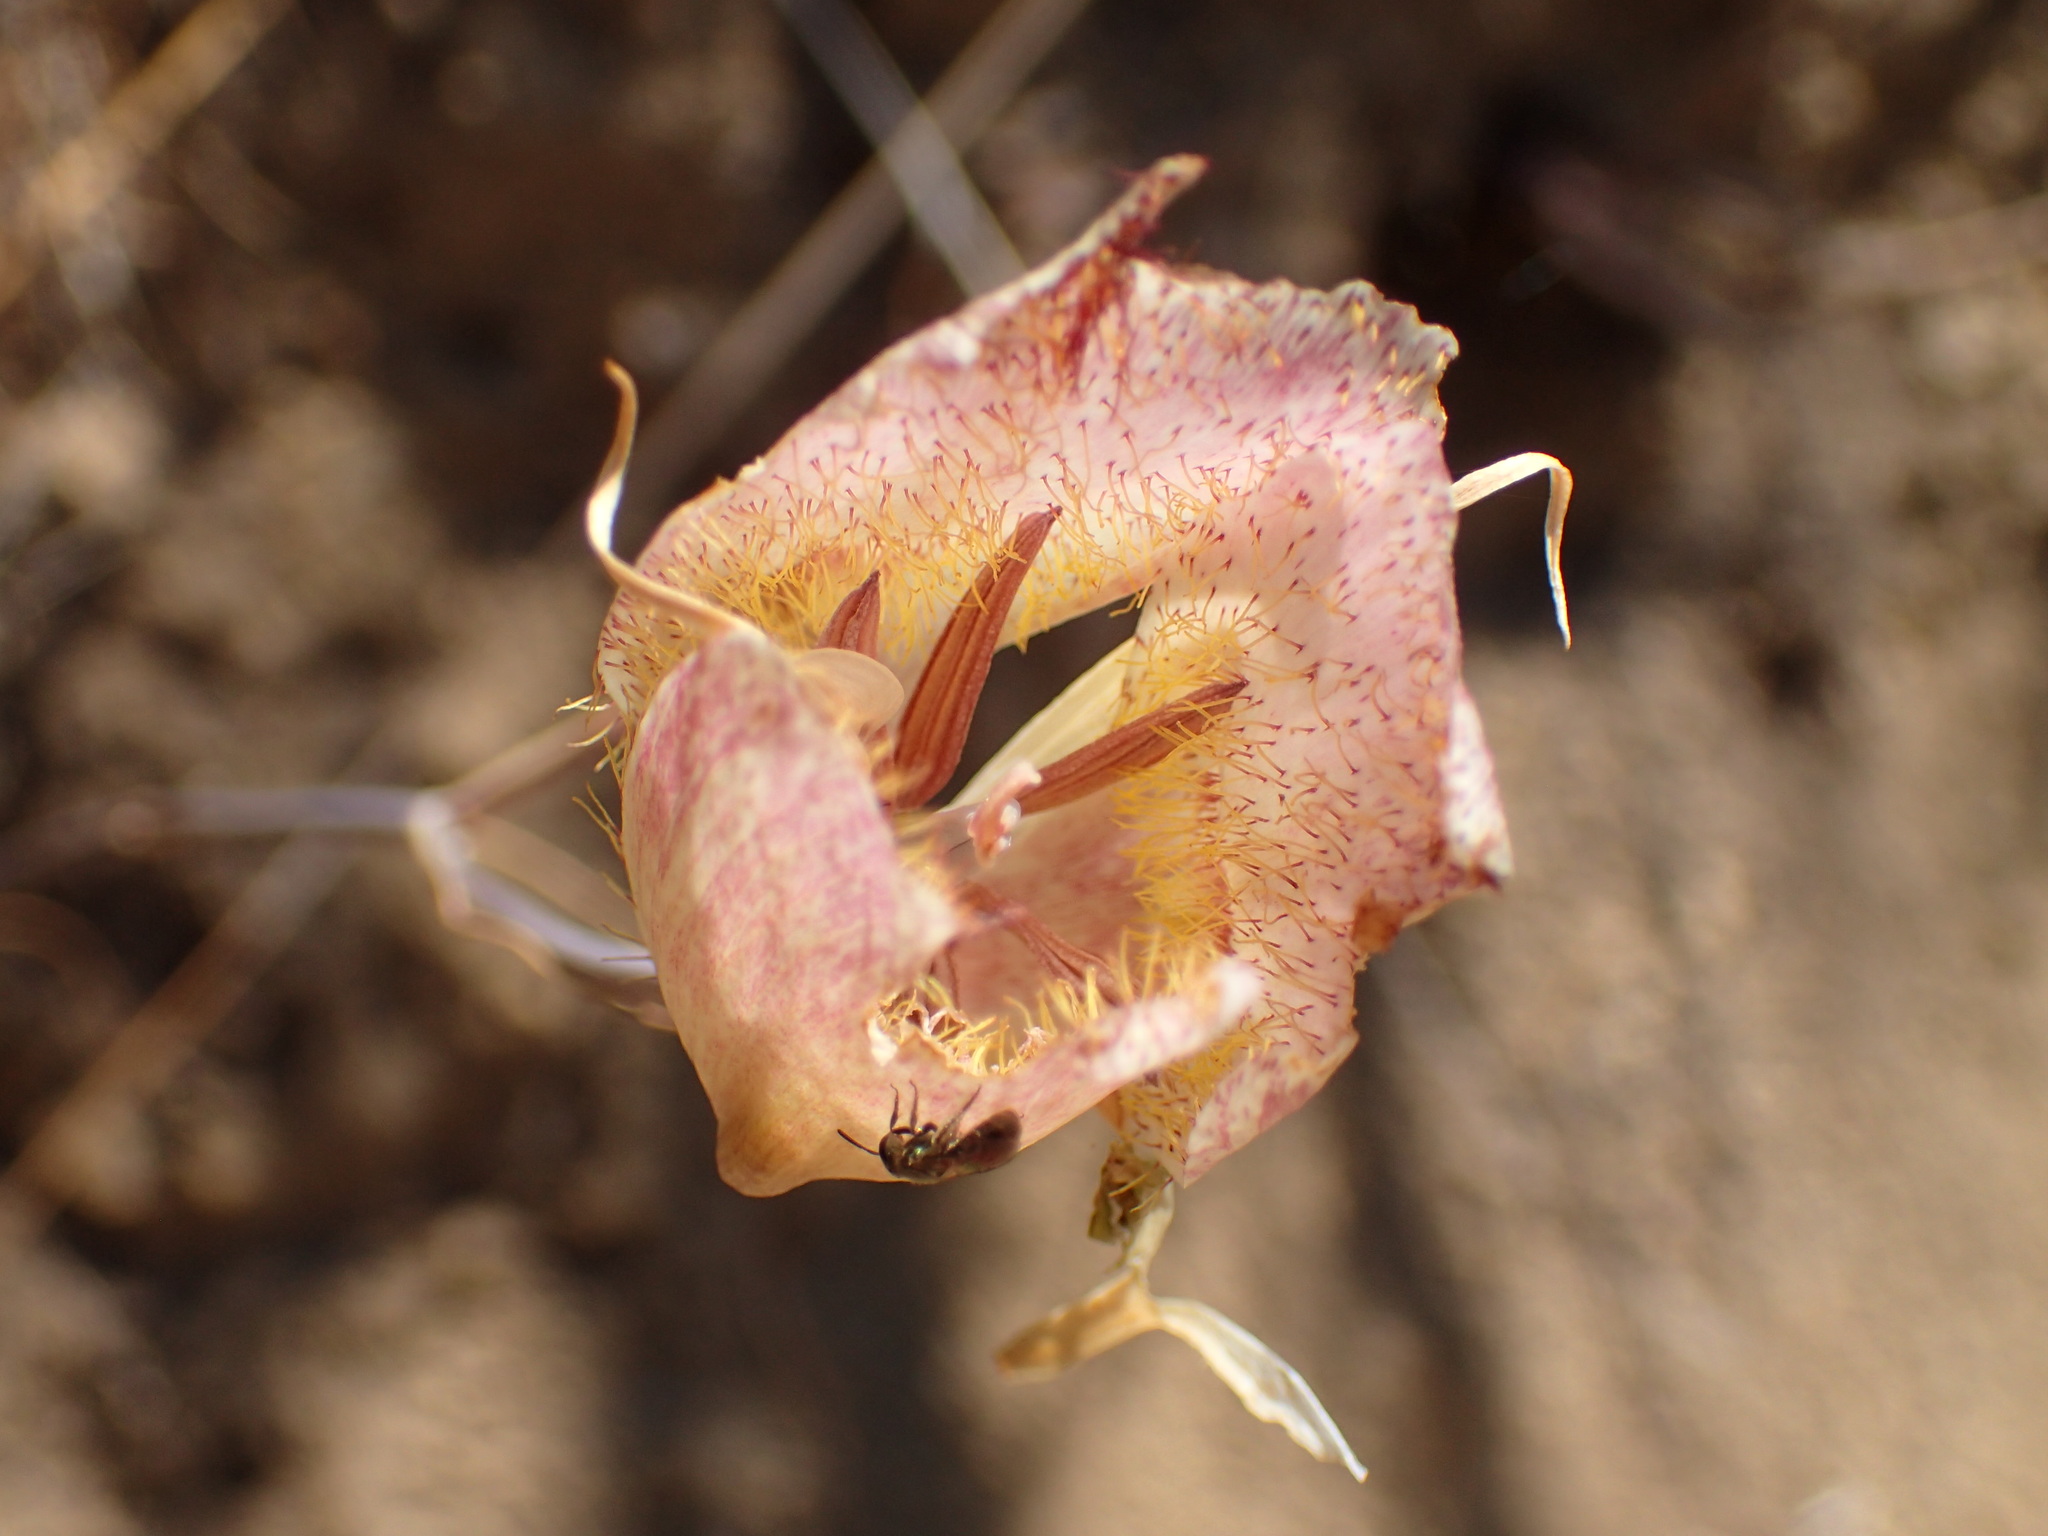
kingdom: Plantae
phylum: Tracheophyta
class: Liliopsida
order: Liliales
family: Liliaceae
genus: Calochortus
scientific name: Calochortus fimbriatus
